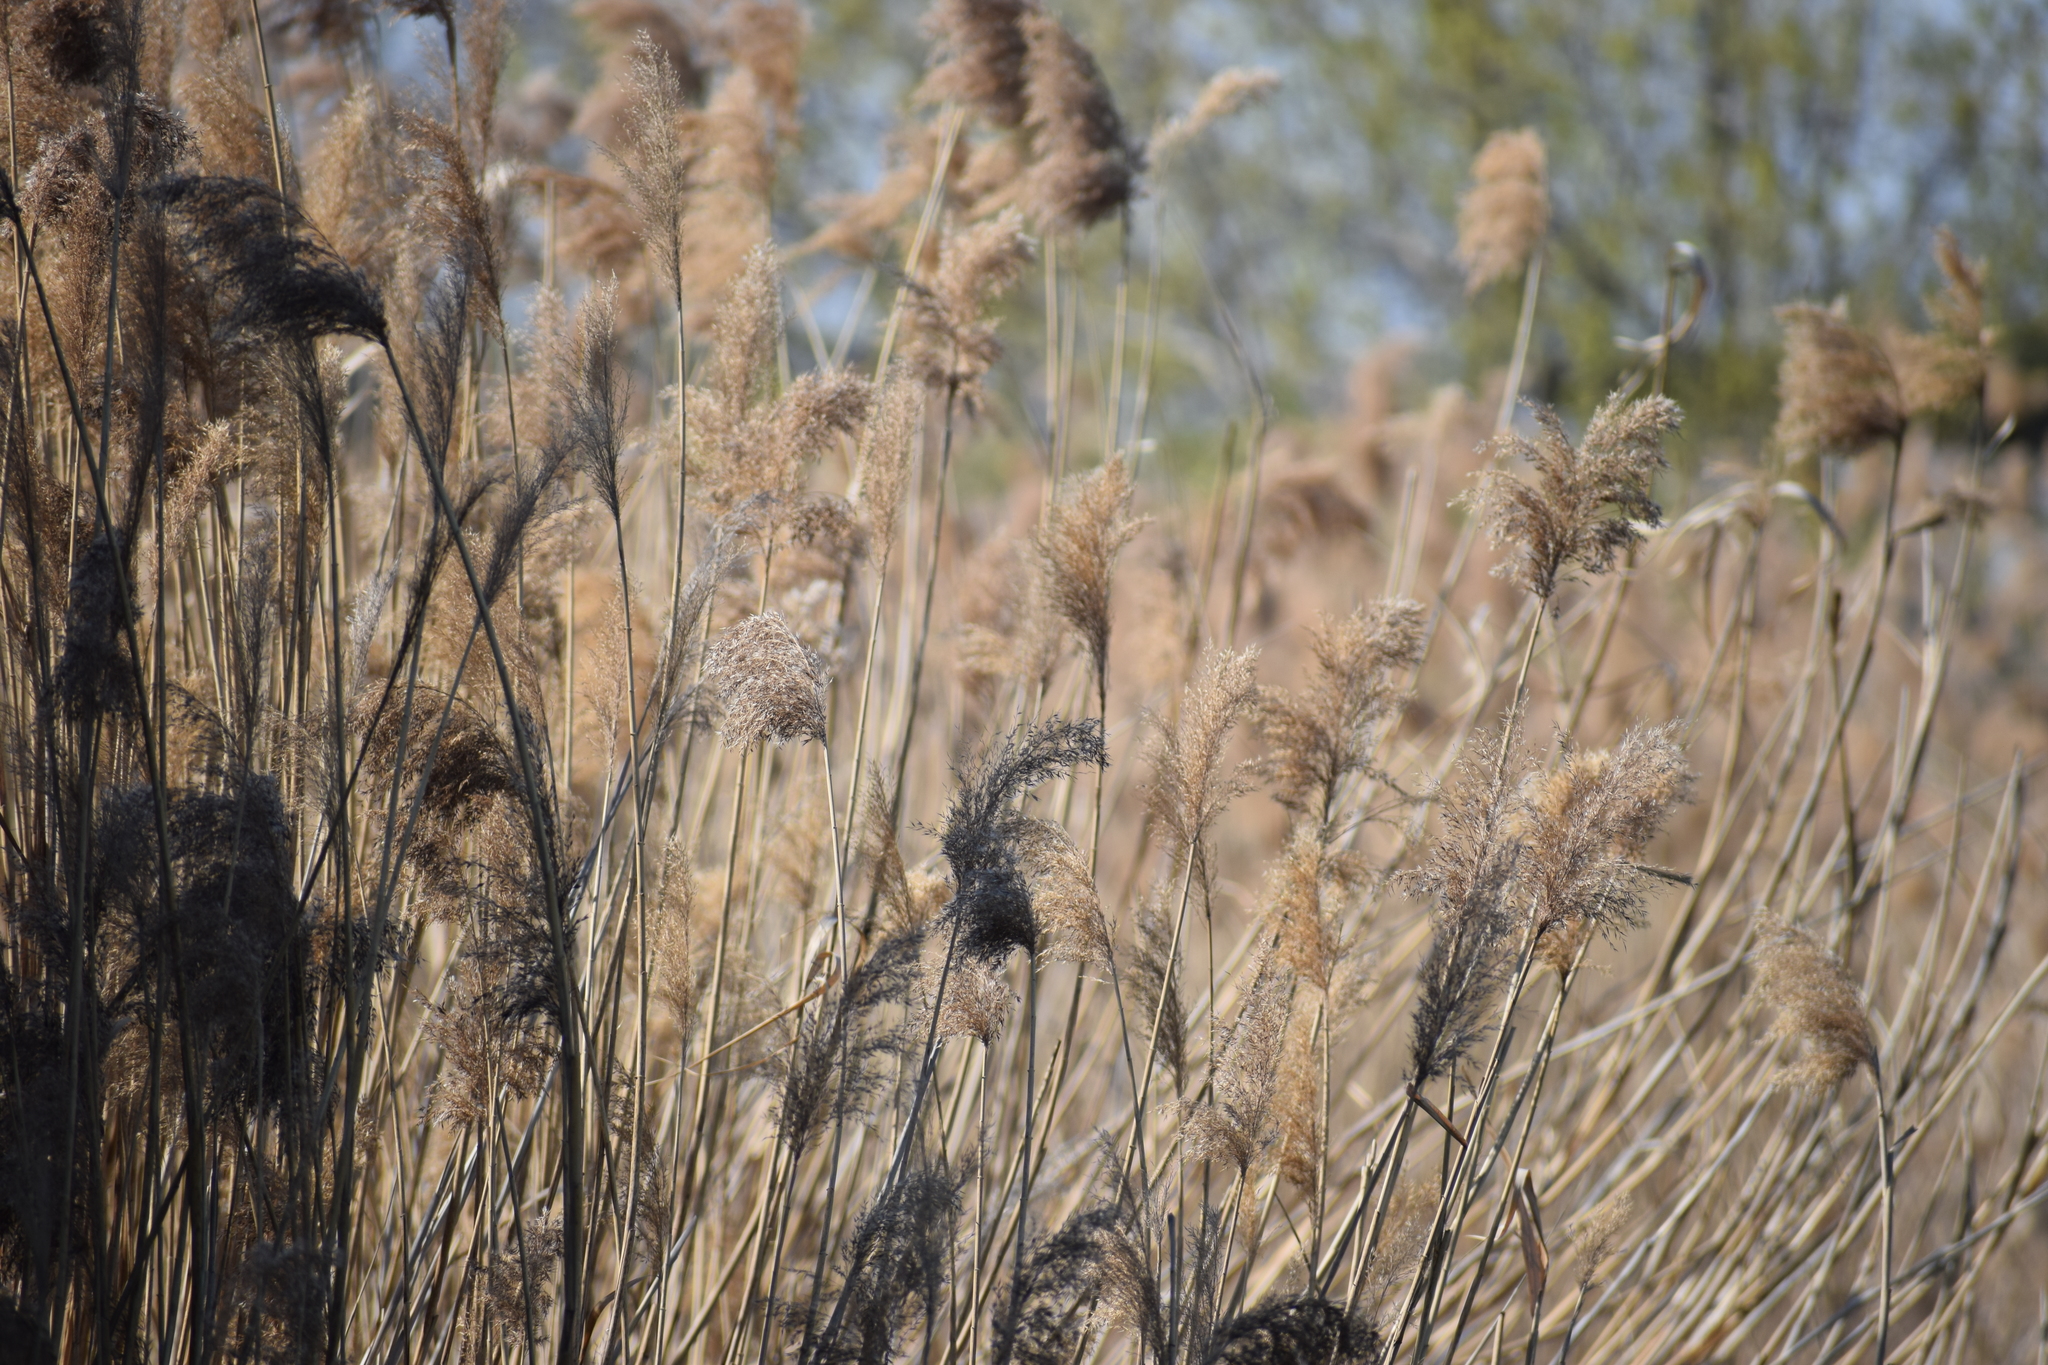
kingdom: Plantae
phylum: Tracheophyta
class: Liliopsida
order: Poales
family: Poaceae
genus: Phragmites
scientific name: Phragmites australis
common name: Common reed
